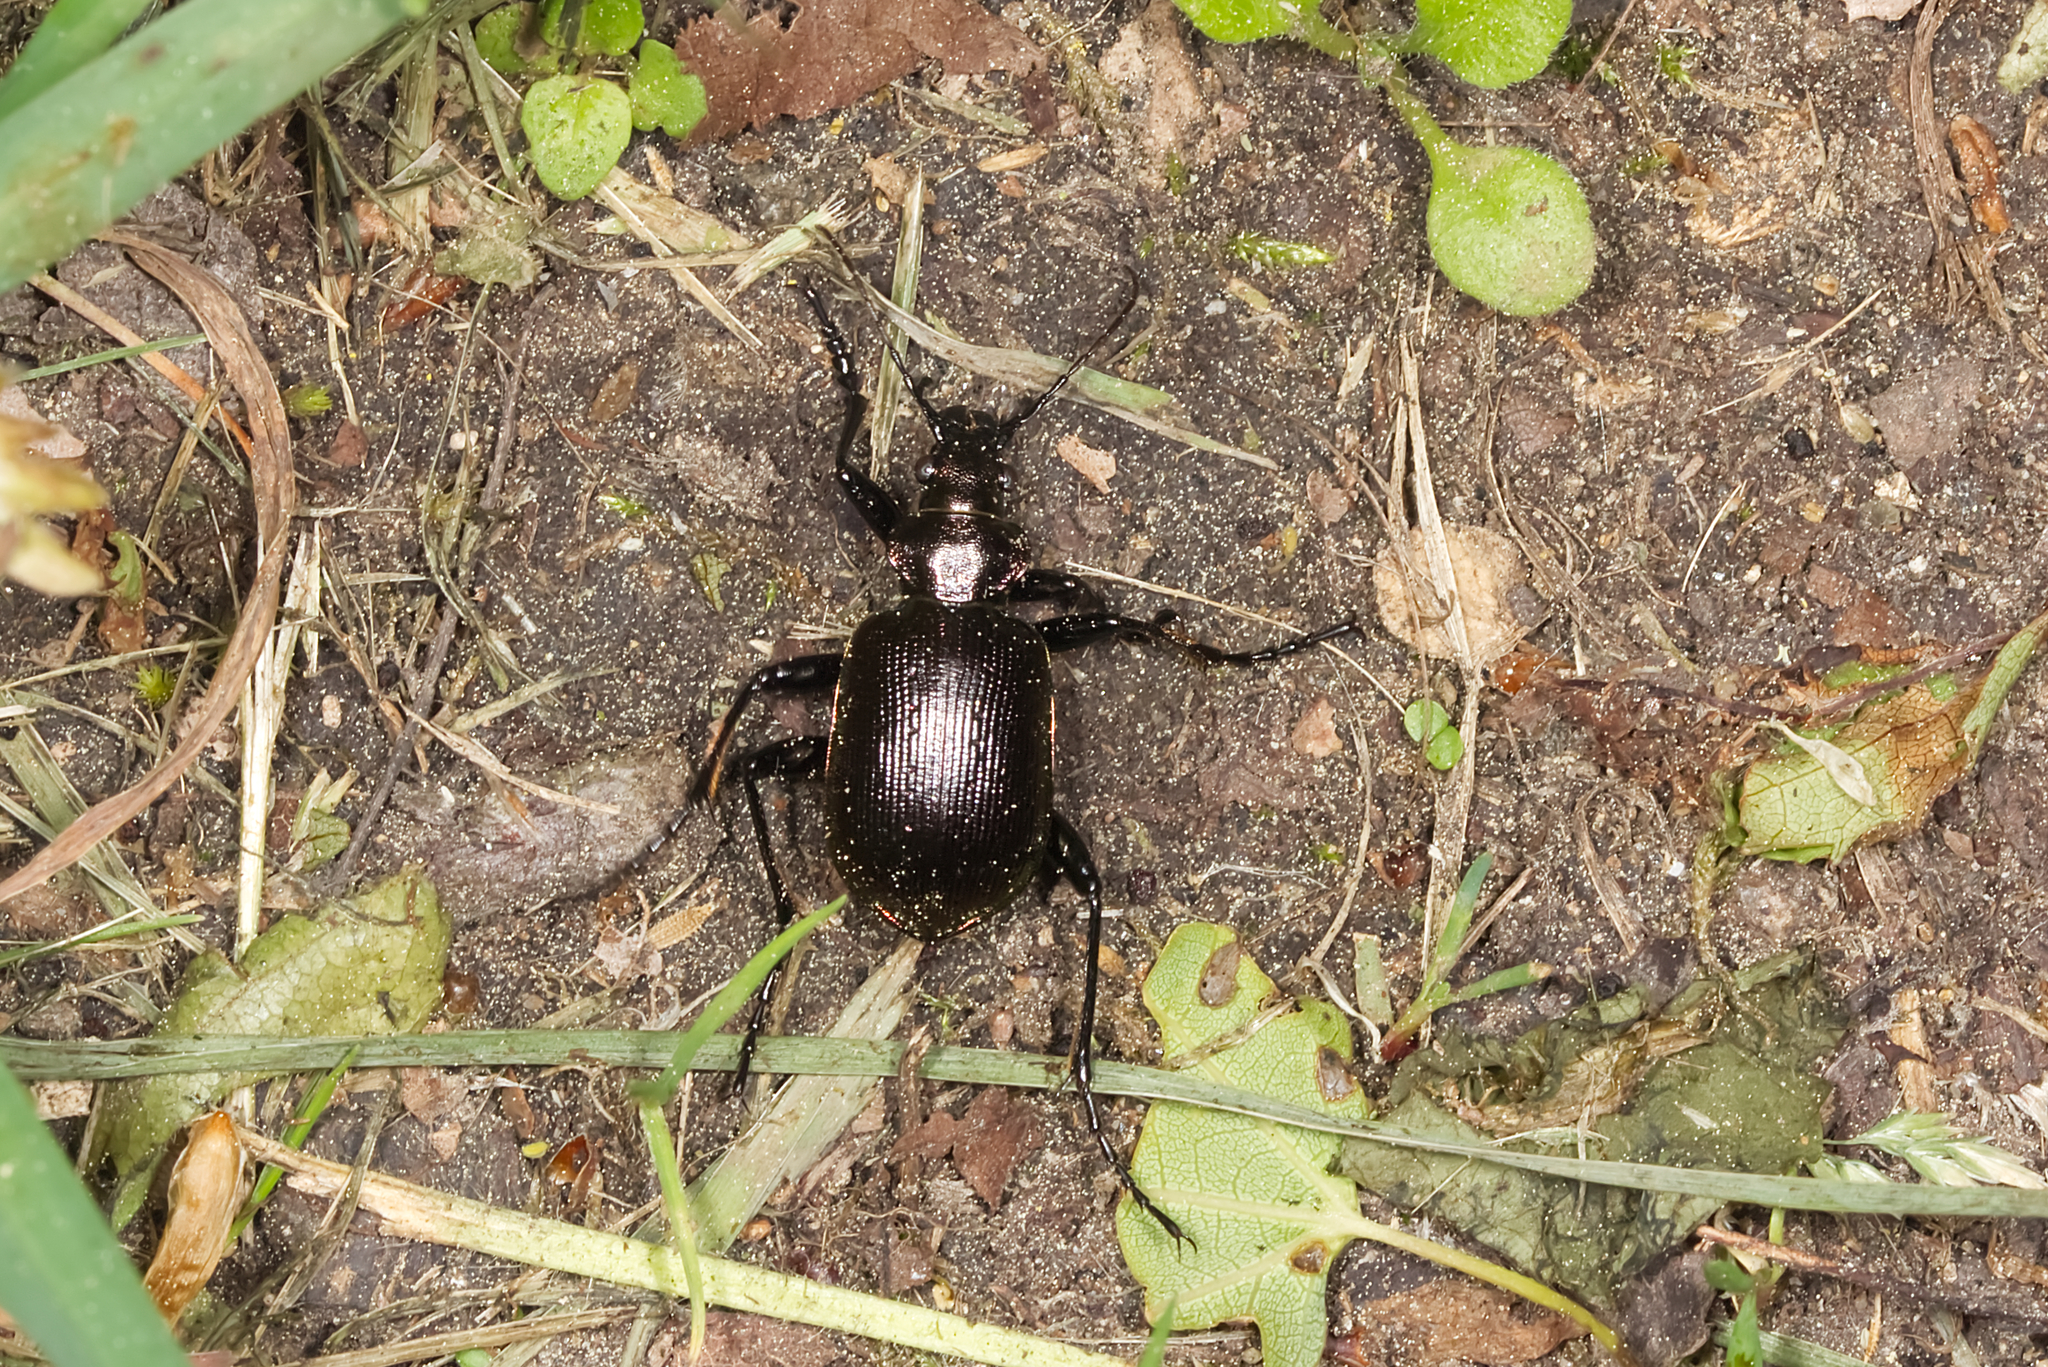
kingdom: Animalia
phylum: Arthropoda
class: Insecta
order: Coleoptera
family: Carabidae
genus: Calosoma
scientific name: Calosoma inquisitor
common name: Caterpillar-hunter
